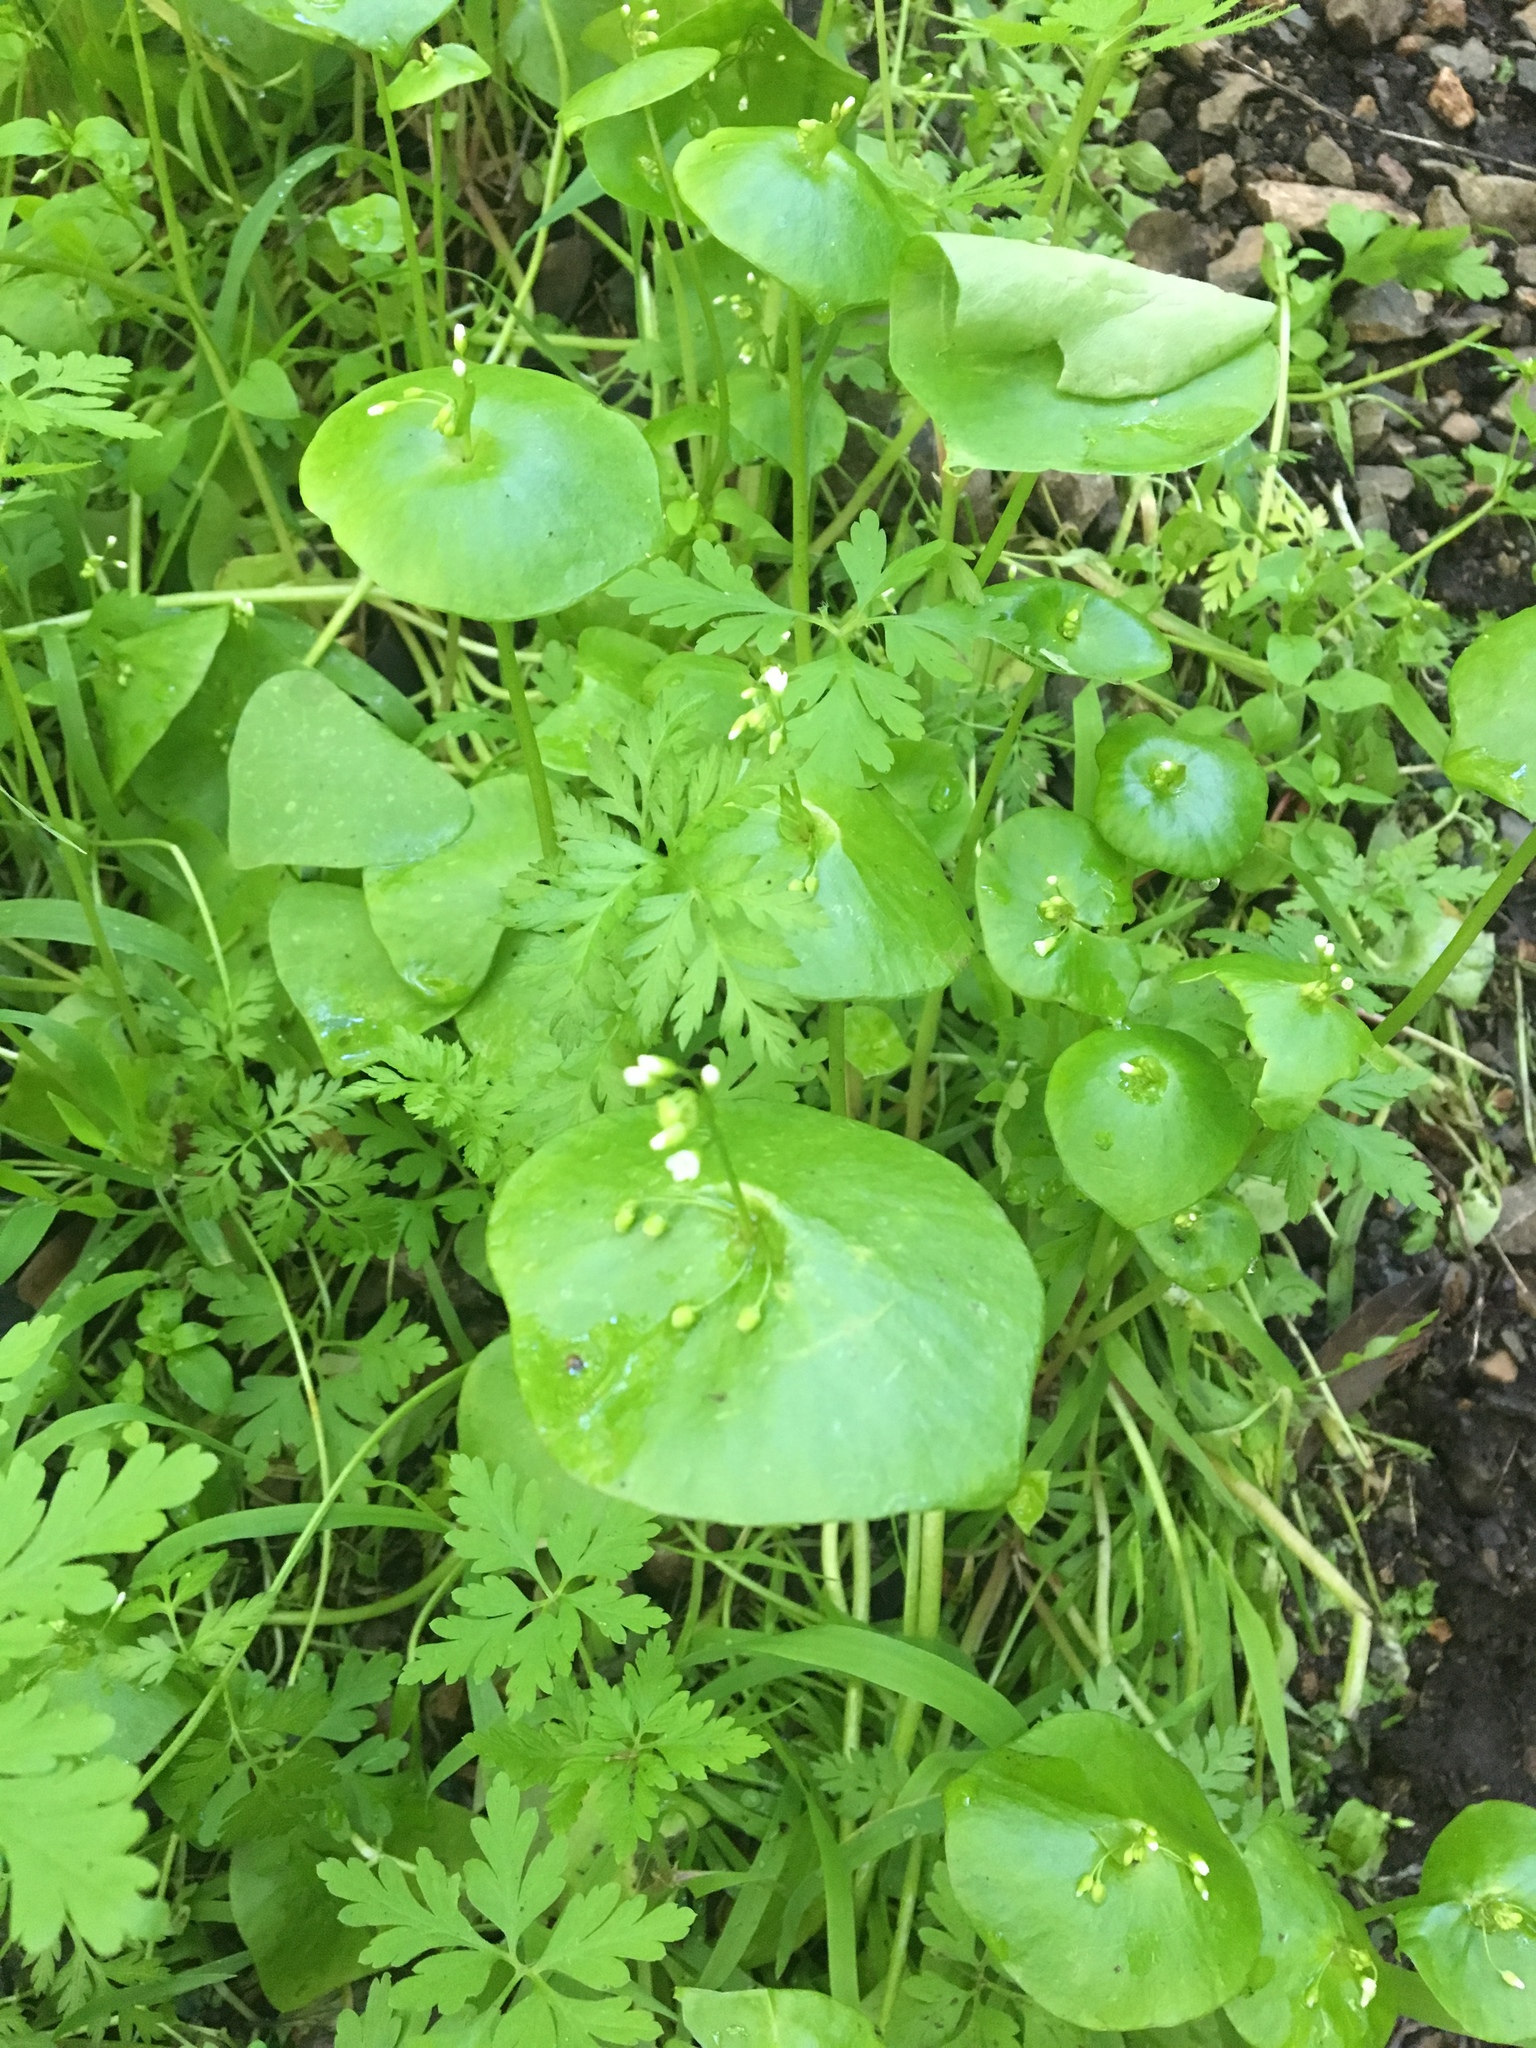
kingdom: Plantae
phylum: Tracheophyta
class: Magnoliopsida
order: Caryophyllales
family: Montiaceae
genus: Claytonia
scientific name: Claytonia perfoliata
